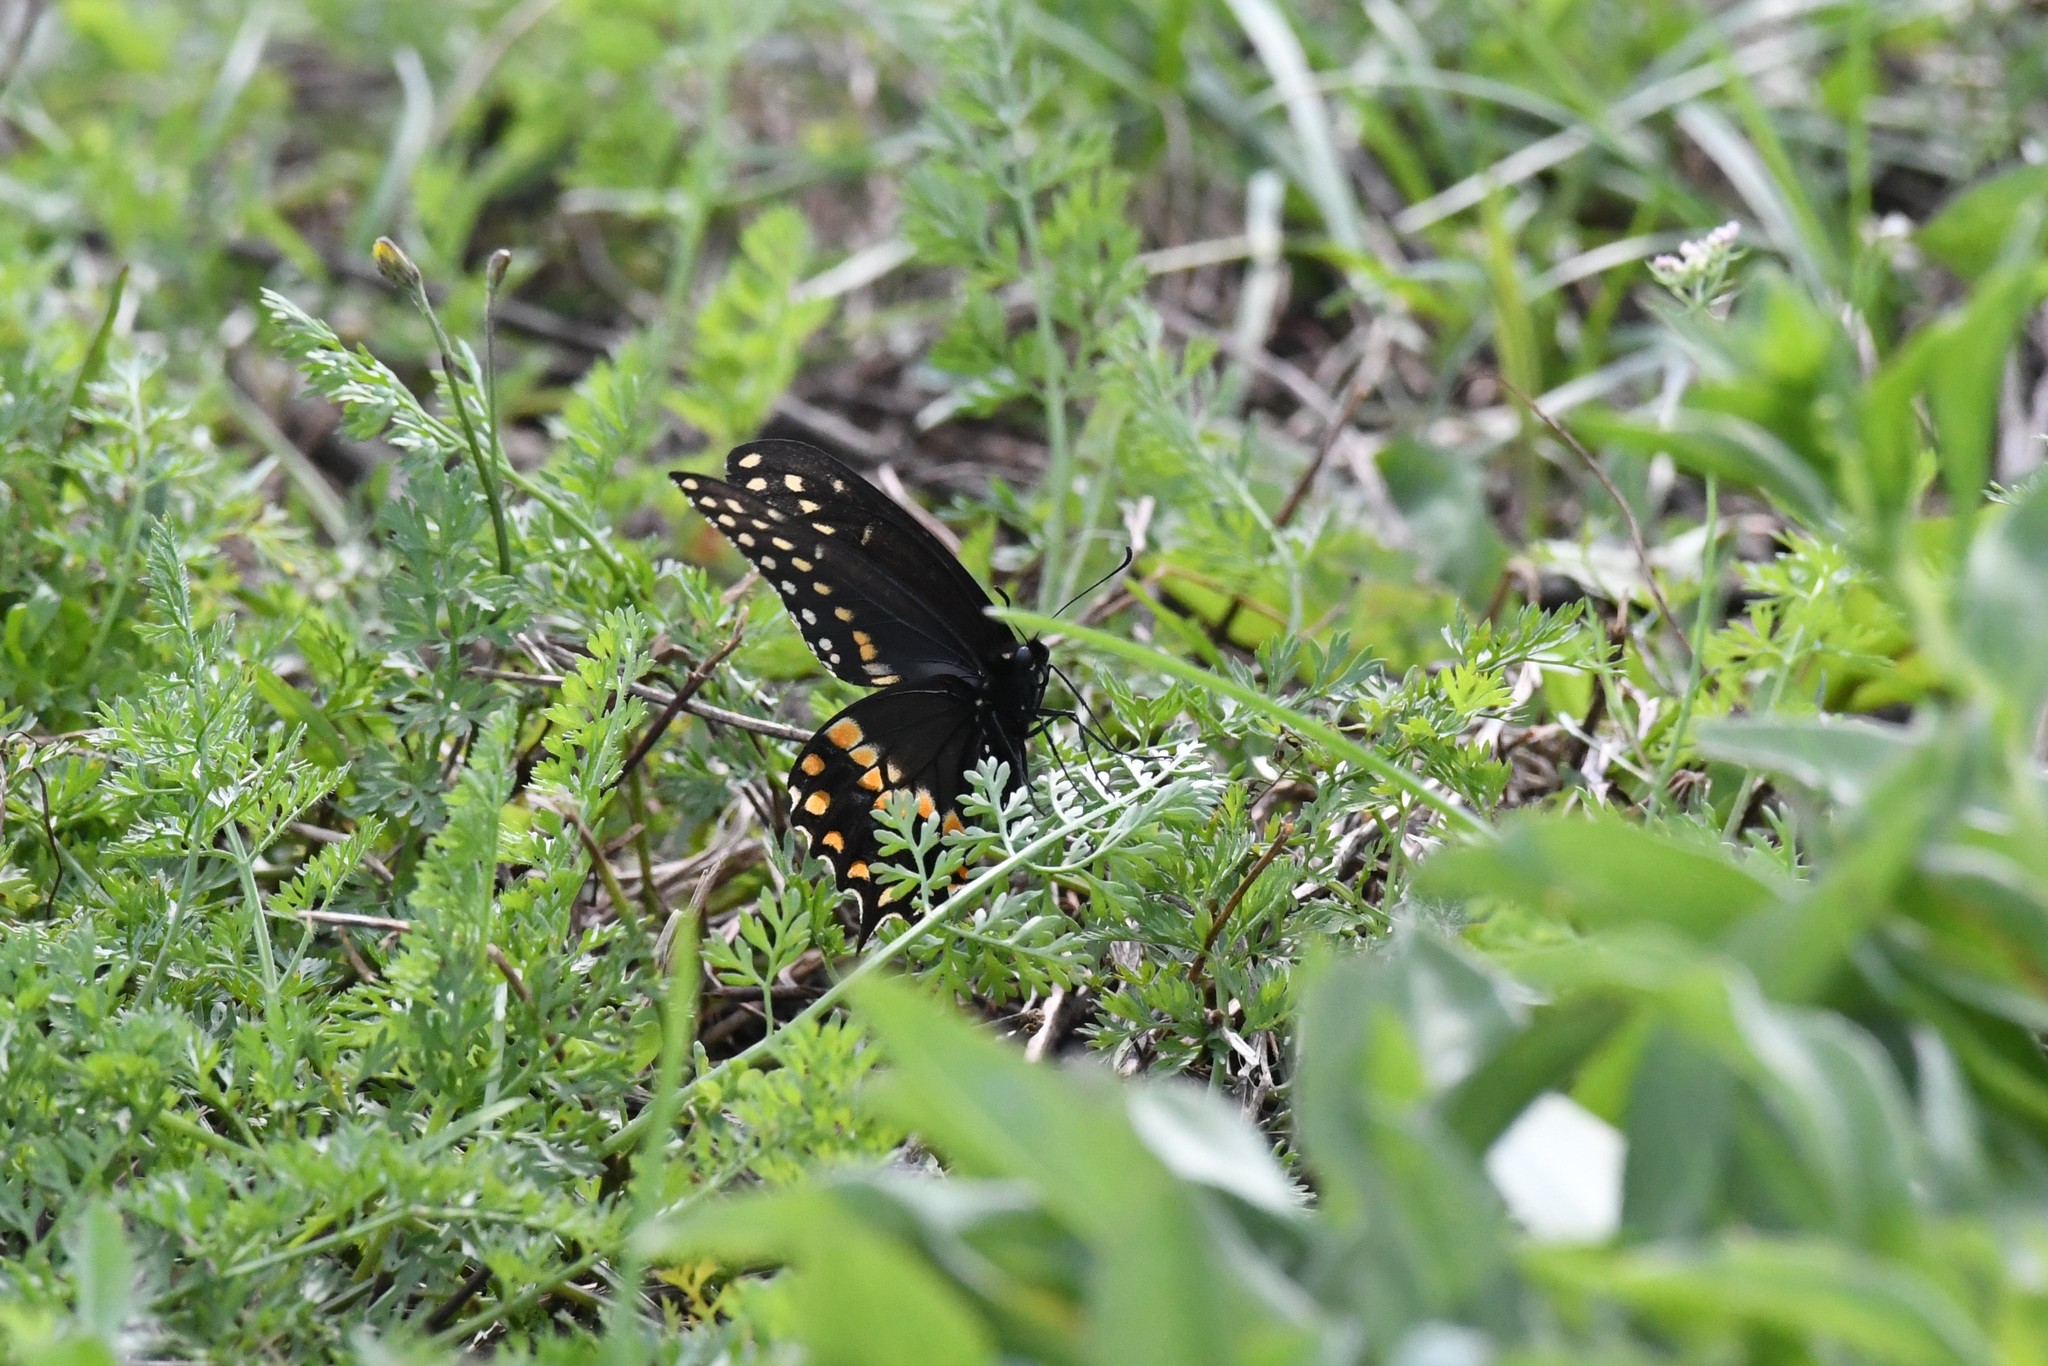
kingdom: Animalia
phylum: Arthropoda
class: Insecta
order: Lepidoptera
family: Papilionidae
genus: Papilio
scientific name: Papilio polyxenes
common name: Black swallowtail
